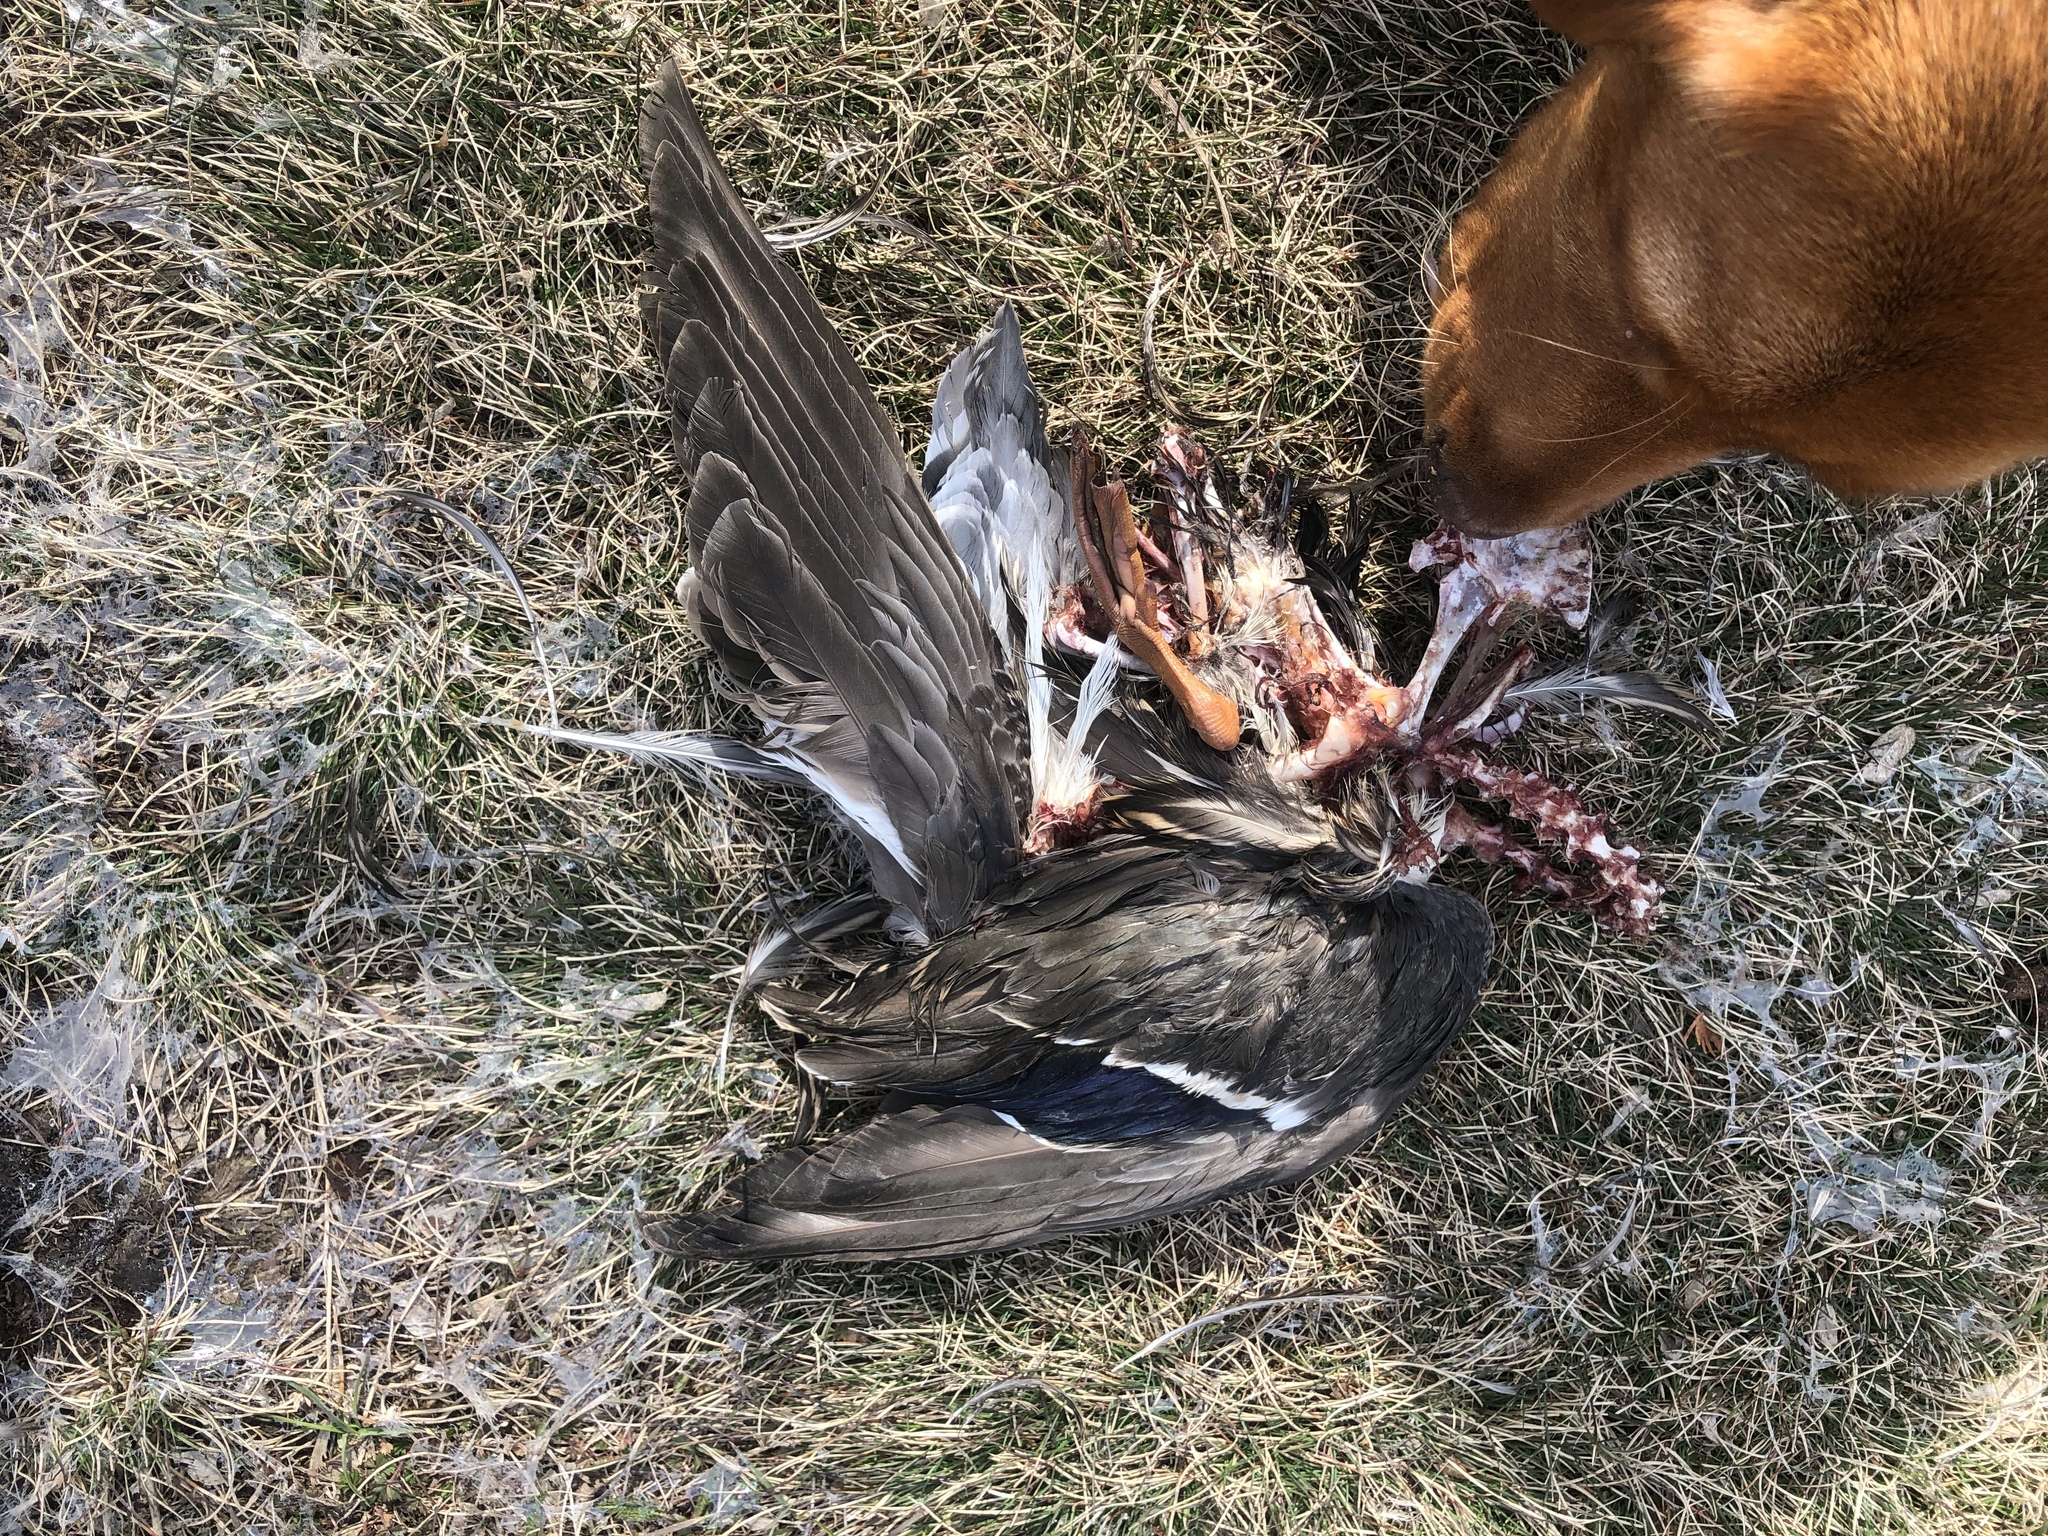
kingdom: Animalia
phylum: Chordata
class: Aves
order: Anseriformes
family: Anatidae
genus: Anas
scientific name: Anas platyrhynchos
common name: Mallard
